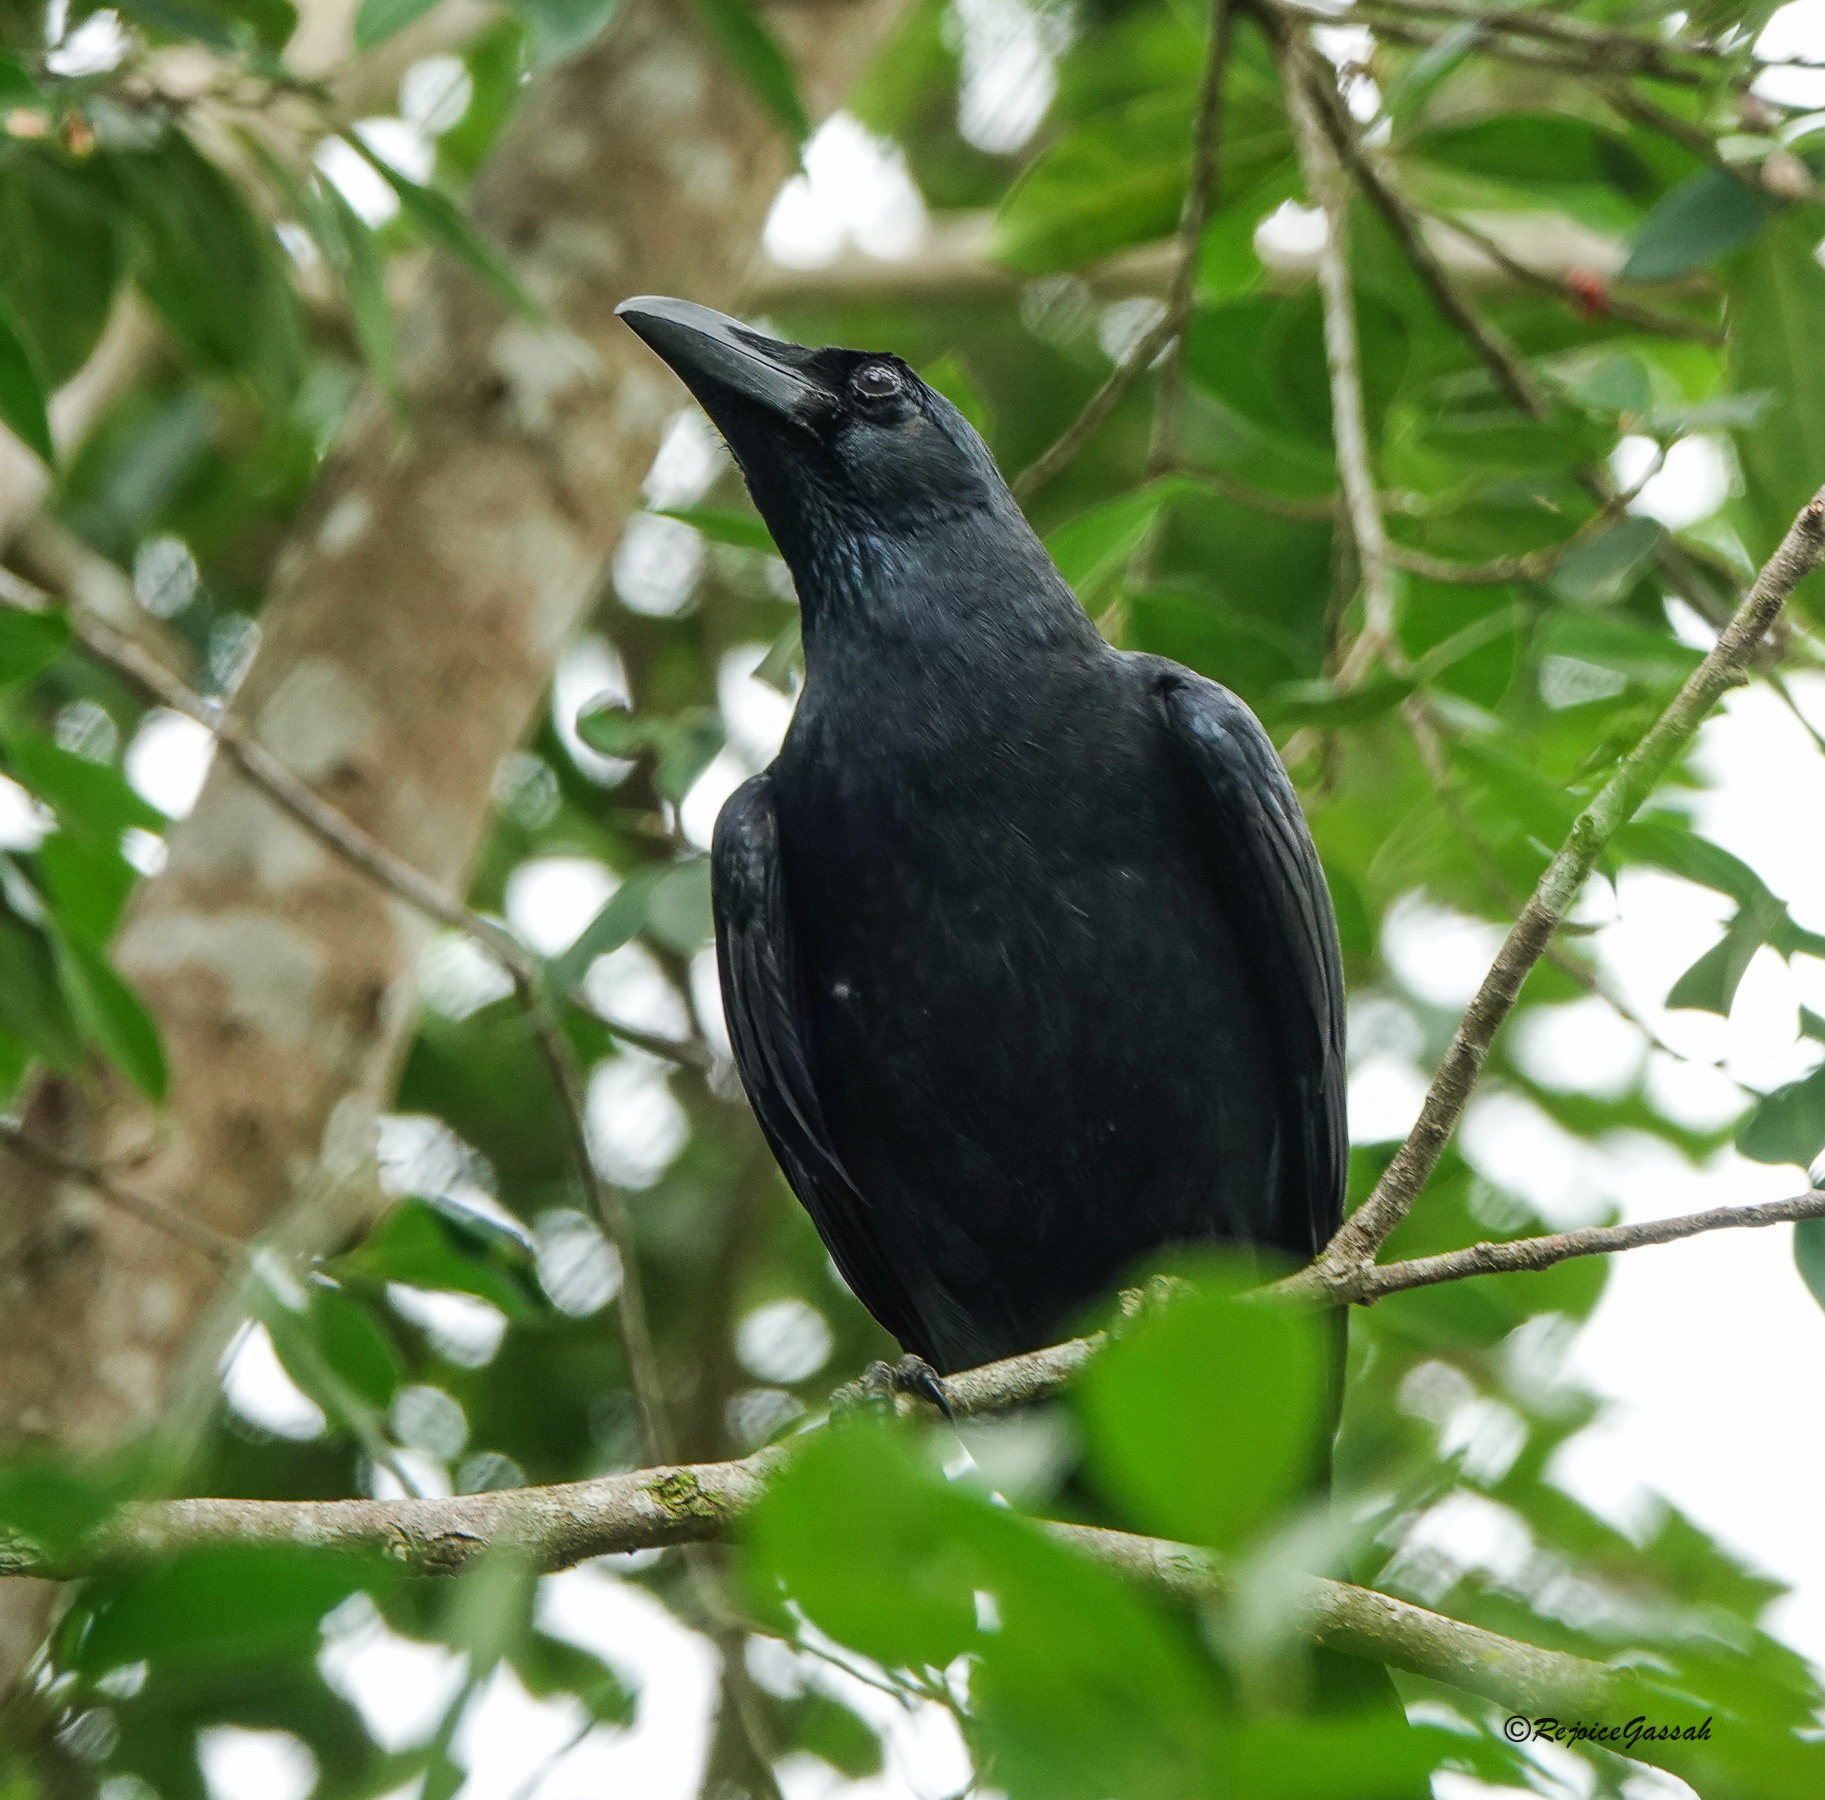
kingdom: Animalia
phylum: Chordata
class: Aves
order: Passeriformes
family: Corvidae
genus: Corvus
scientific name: Corvus macrorhynchos
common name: Large-billed crow
